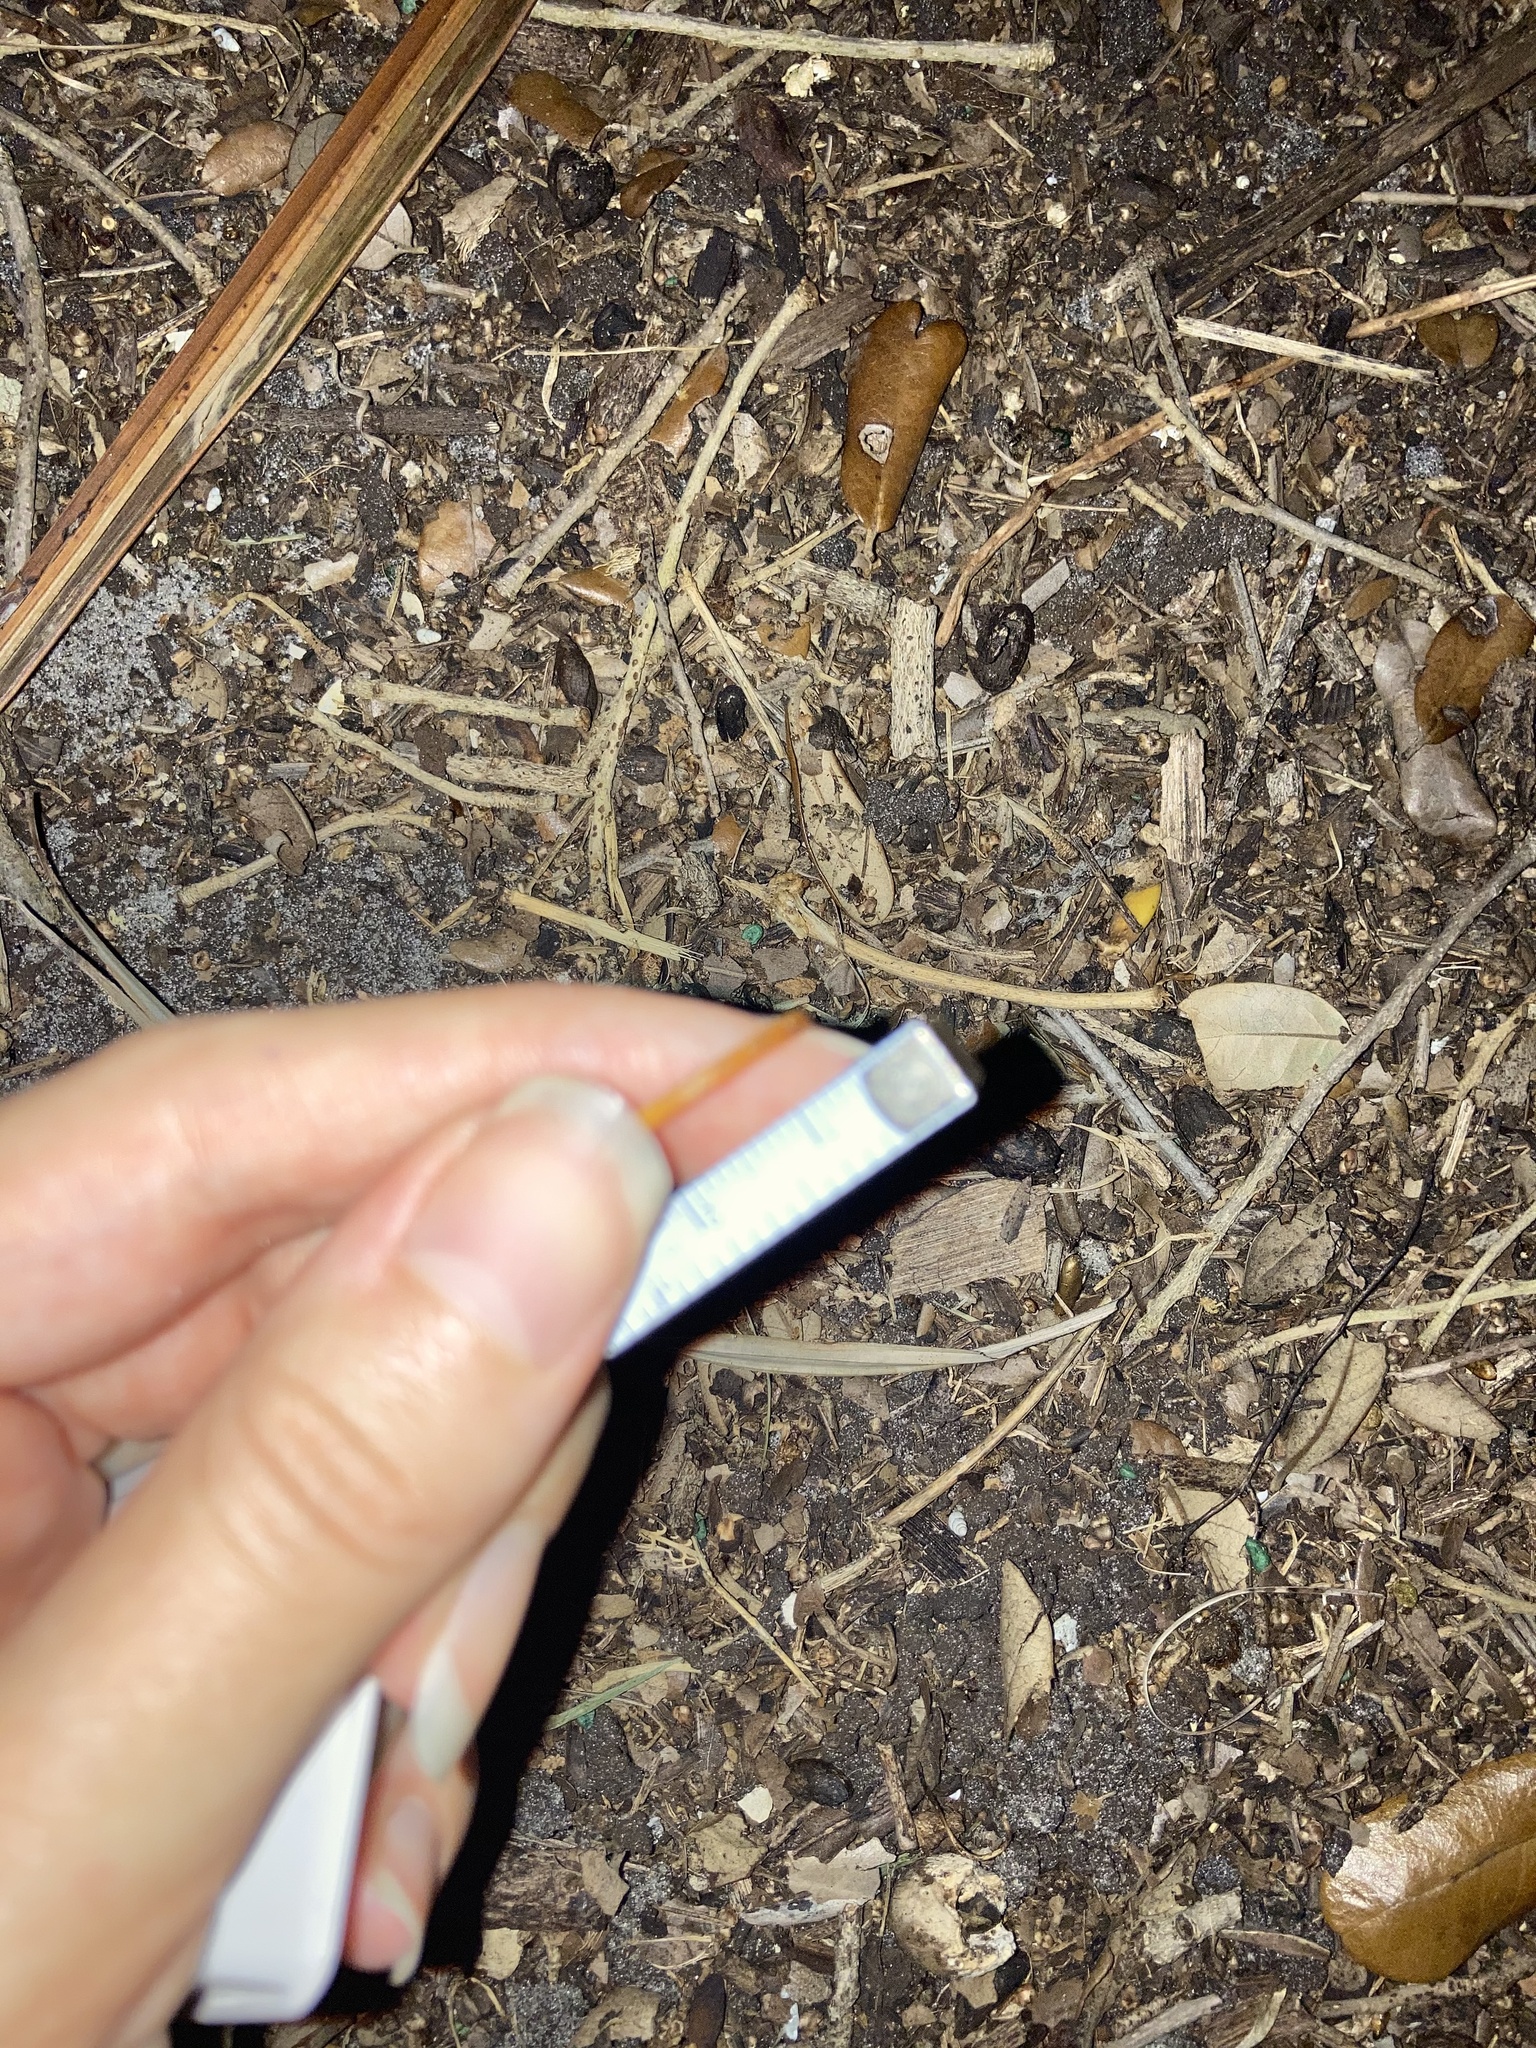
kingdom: Animalia
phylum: Chordata
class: Mammalia
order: Rodentia
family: Sciuridae
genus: Sciurus
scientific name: Sciurus carolinensis
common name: Eastern gray squirrel
